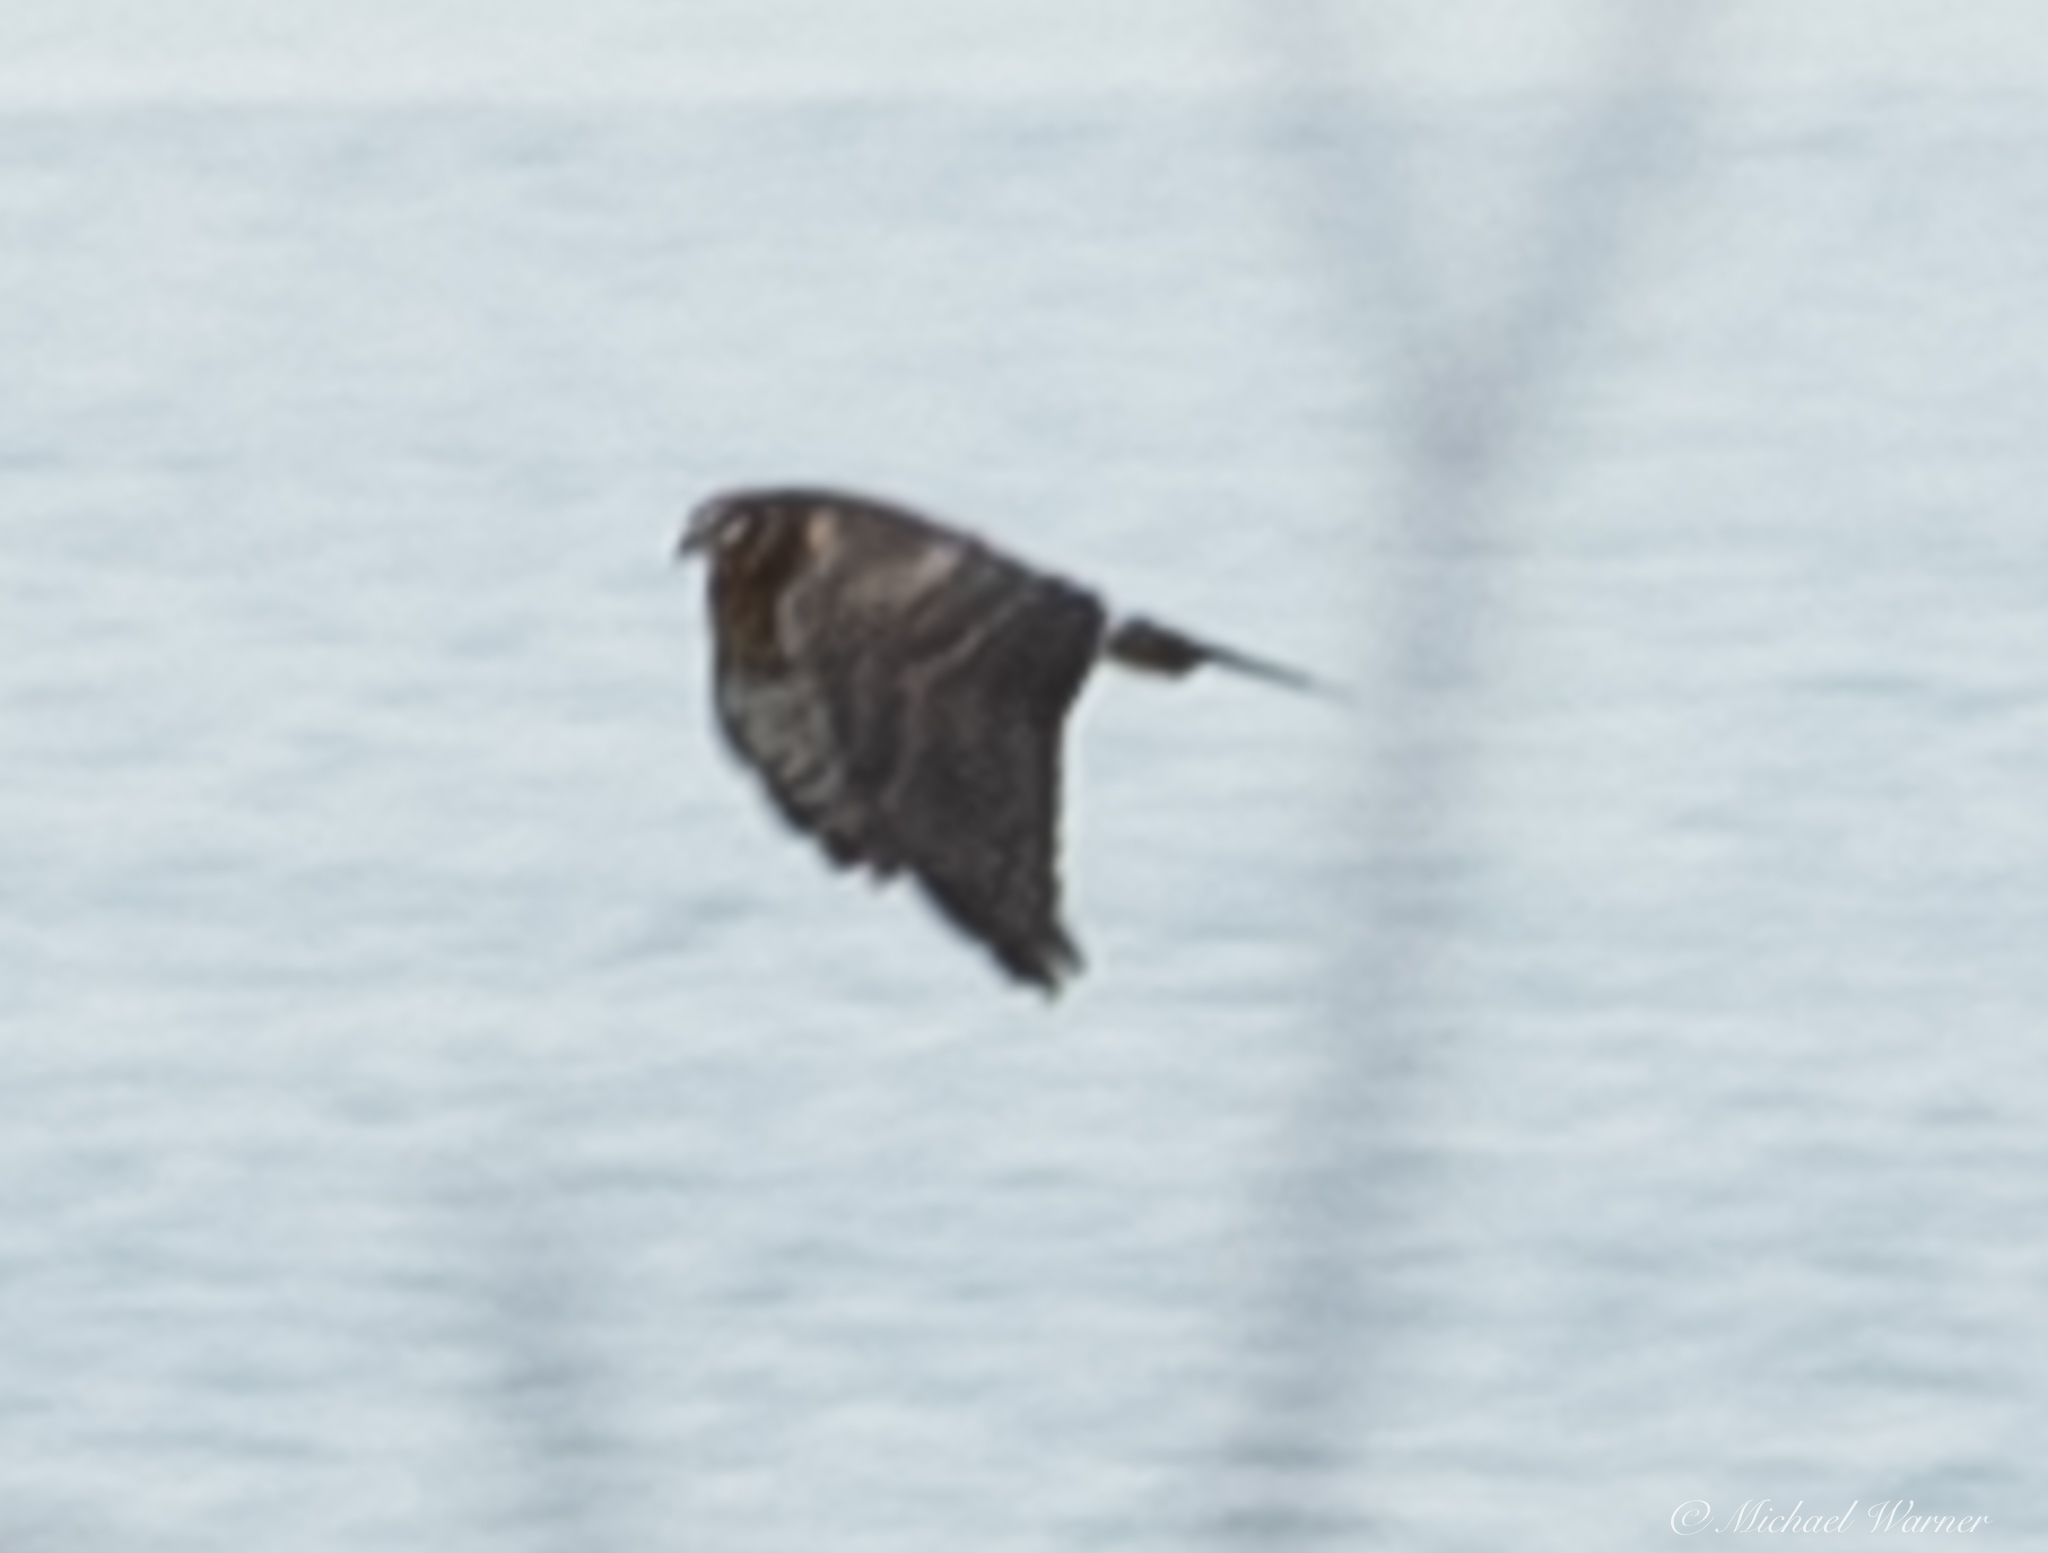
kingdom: Animalia
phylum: Chordata
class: Aves
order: Accipitriformes
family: Accipitridae
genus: Circus
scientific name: Circus cyaneus
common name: Hen harrier
